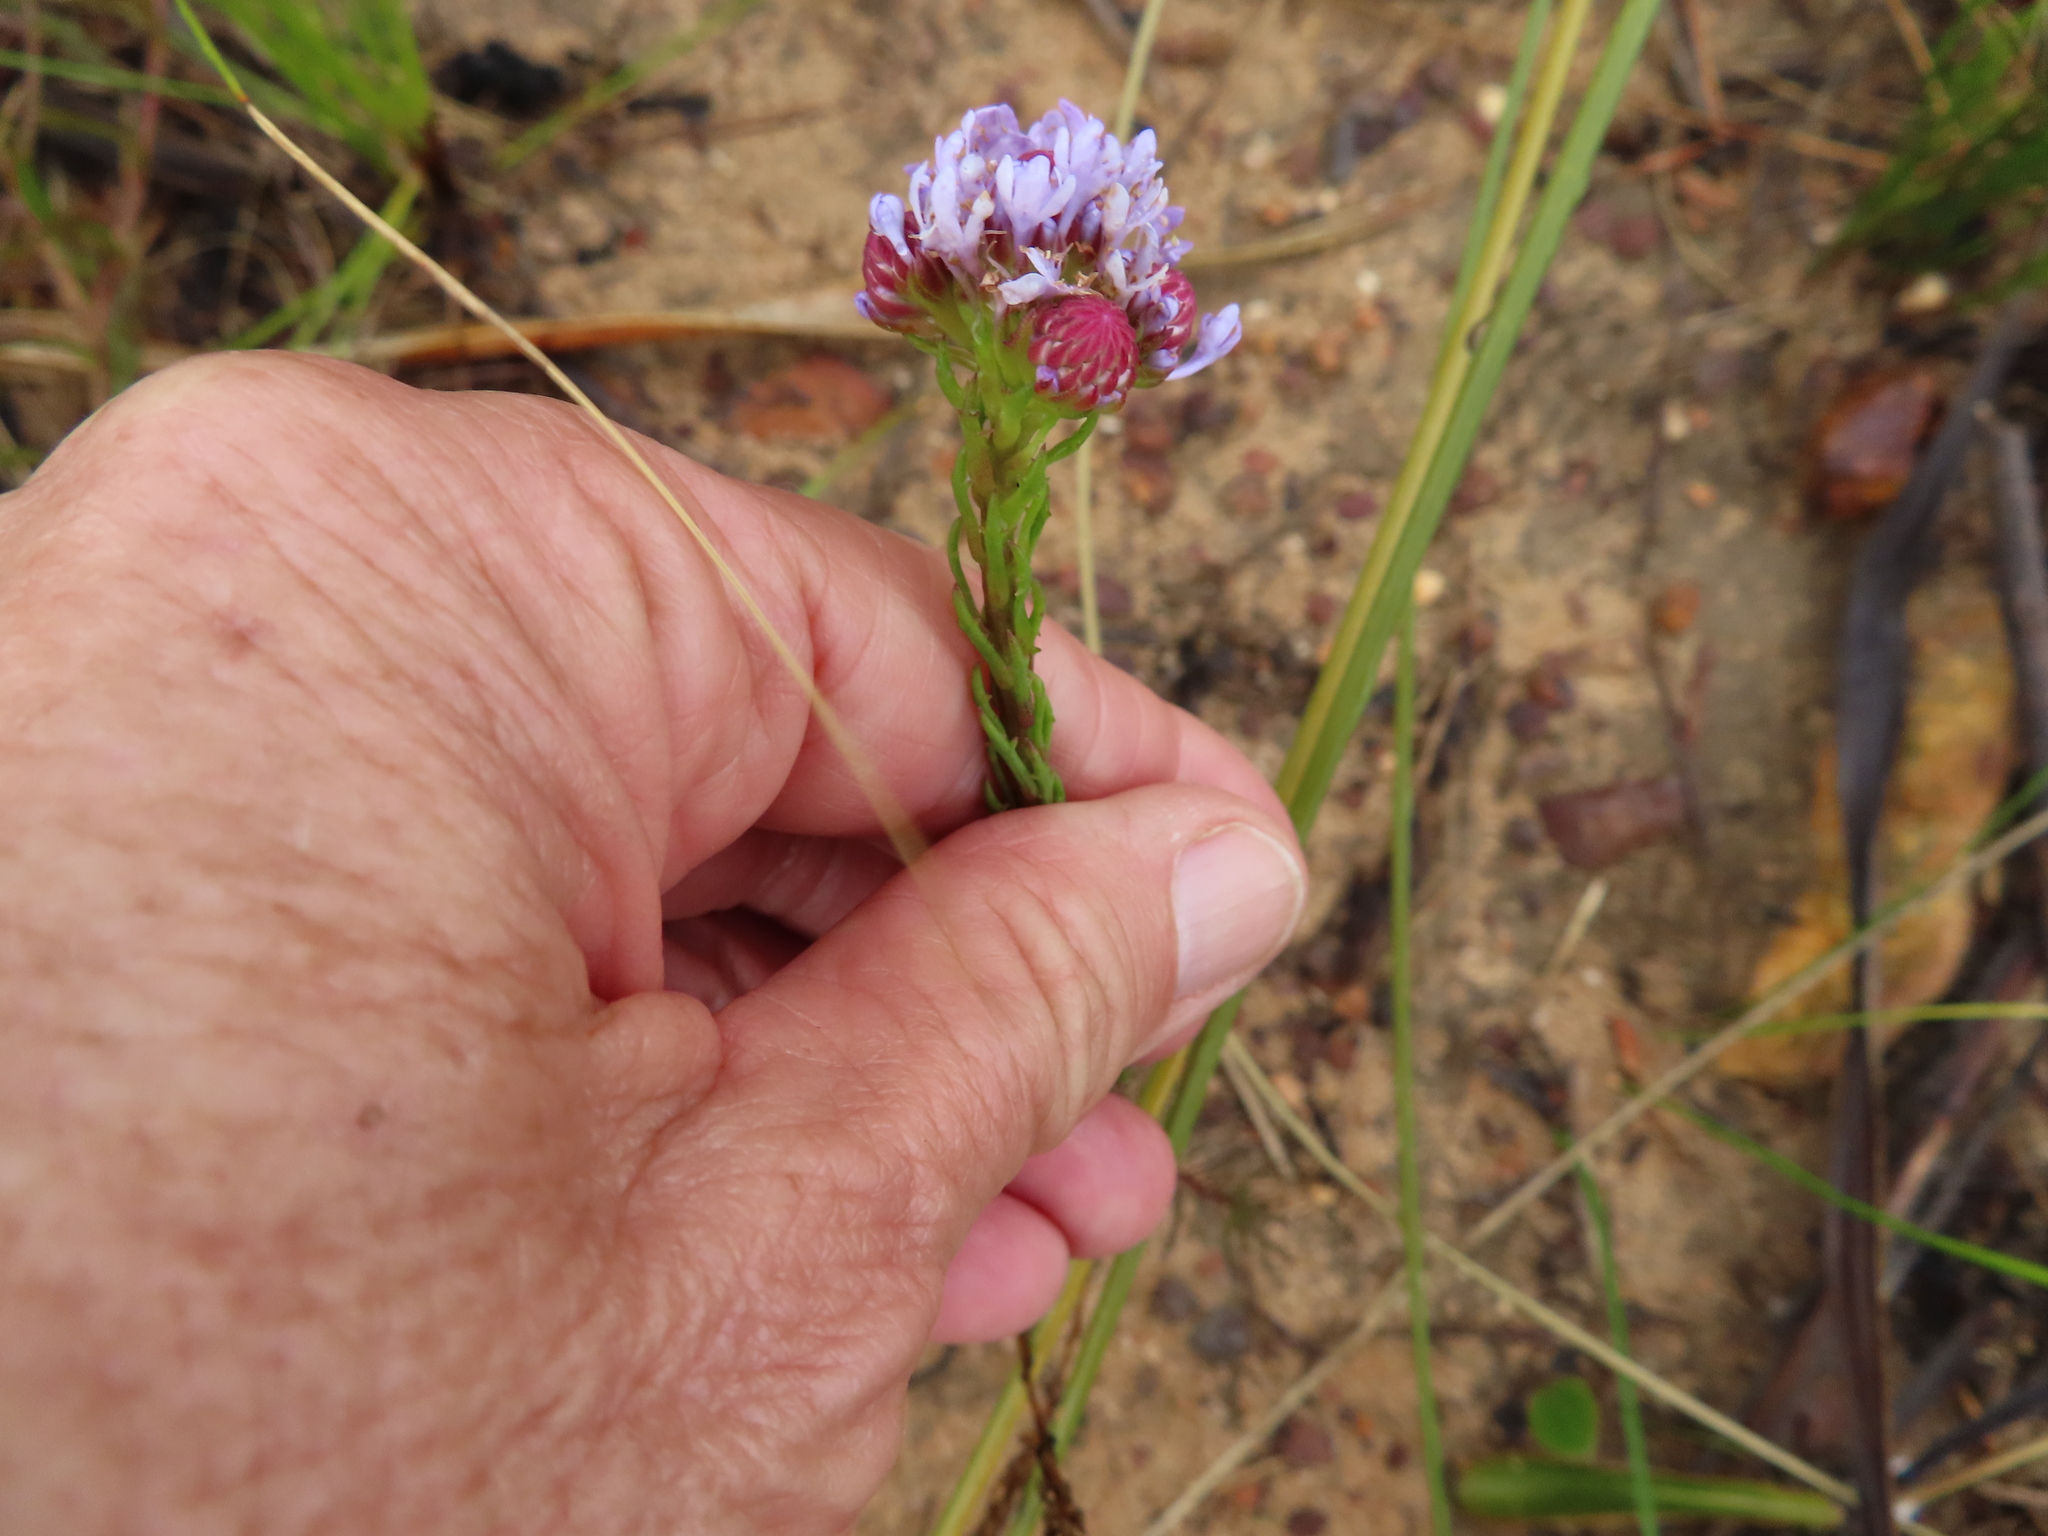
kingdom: Plantae
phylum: Tracheophyta
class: Magnoliopsida
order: Lamiales
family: Scrophulariaceae
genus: Pseudoselago
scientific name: Pseudoselago spuria
